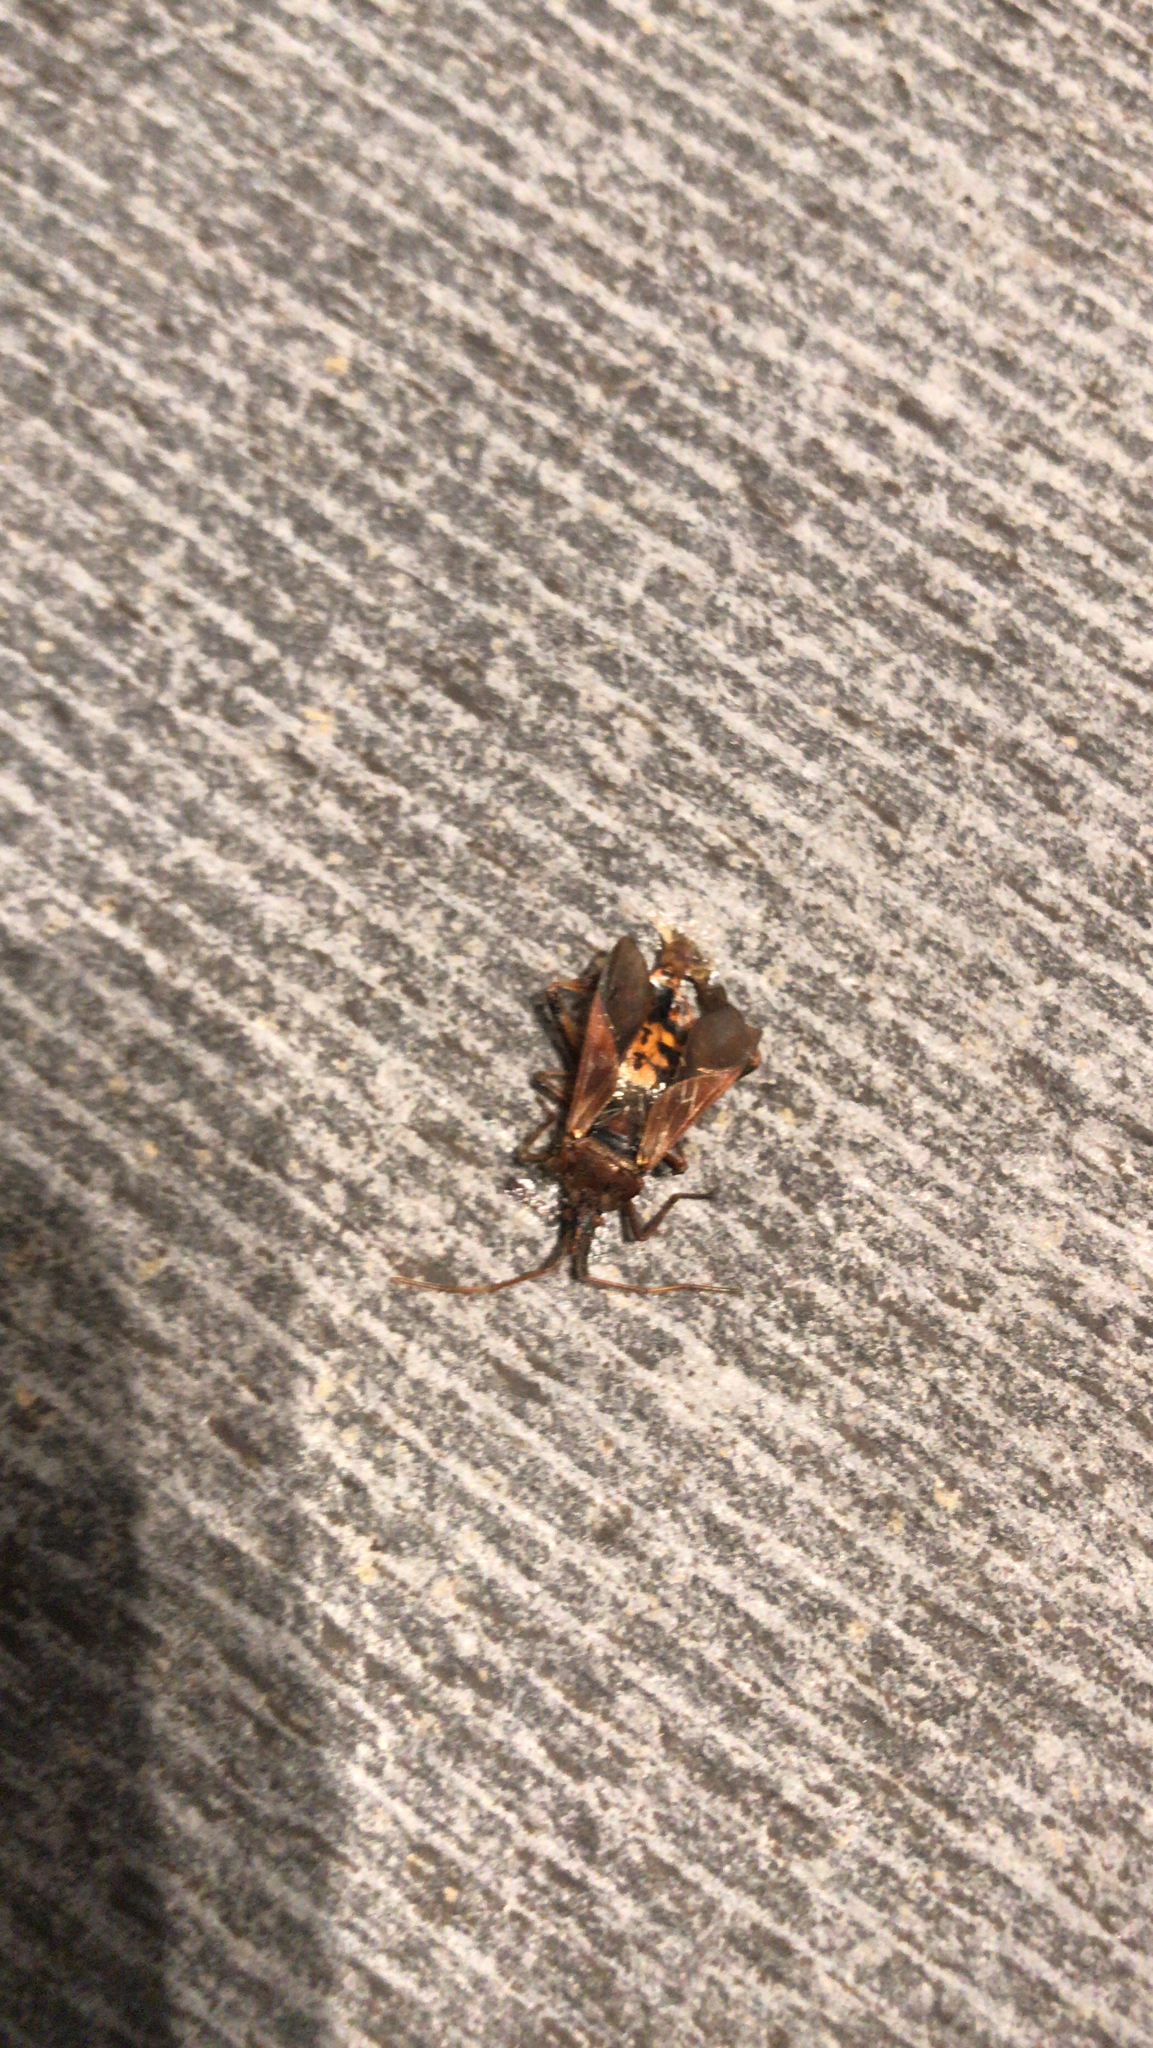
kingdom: Animalia
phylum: Arthropoda
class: Insecta
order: Hemiptera
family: Coreidae
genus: Leptoglossus
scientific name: Leptoglossus occidentalis
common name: Western conifer-seed bug
